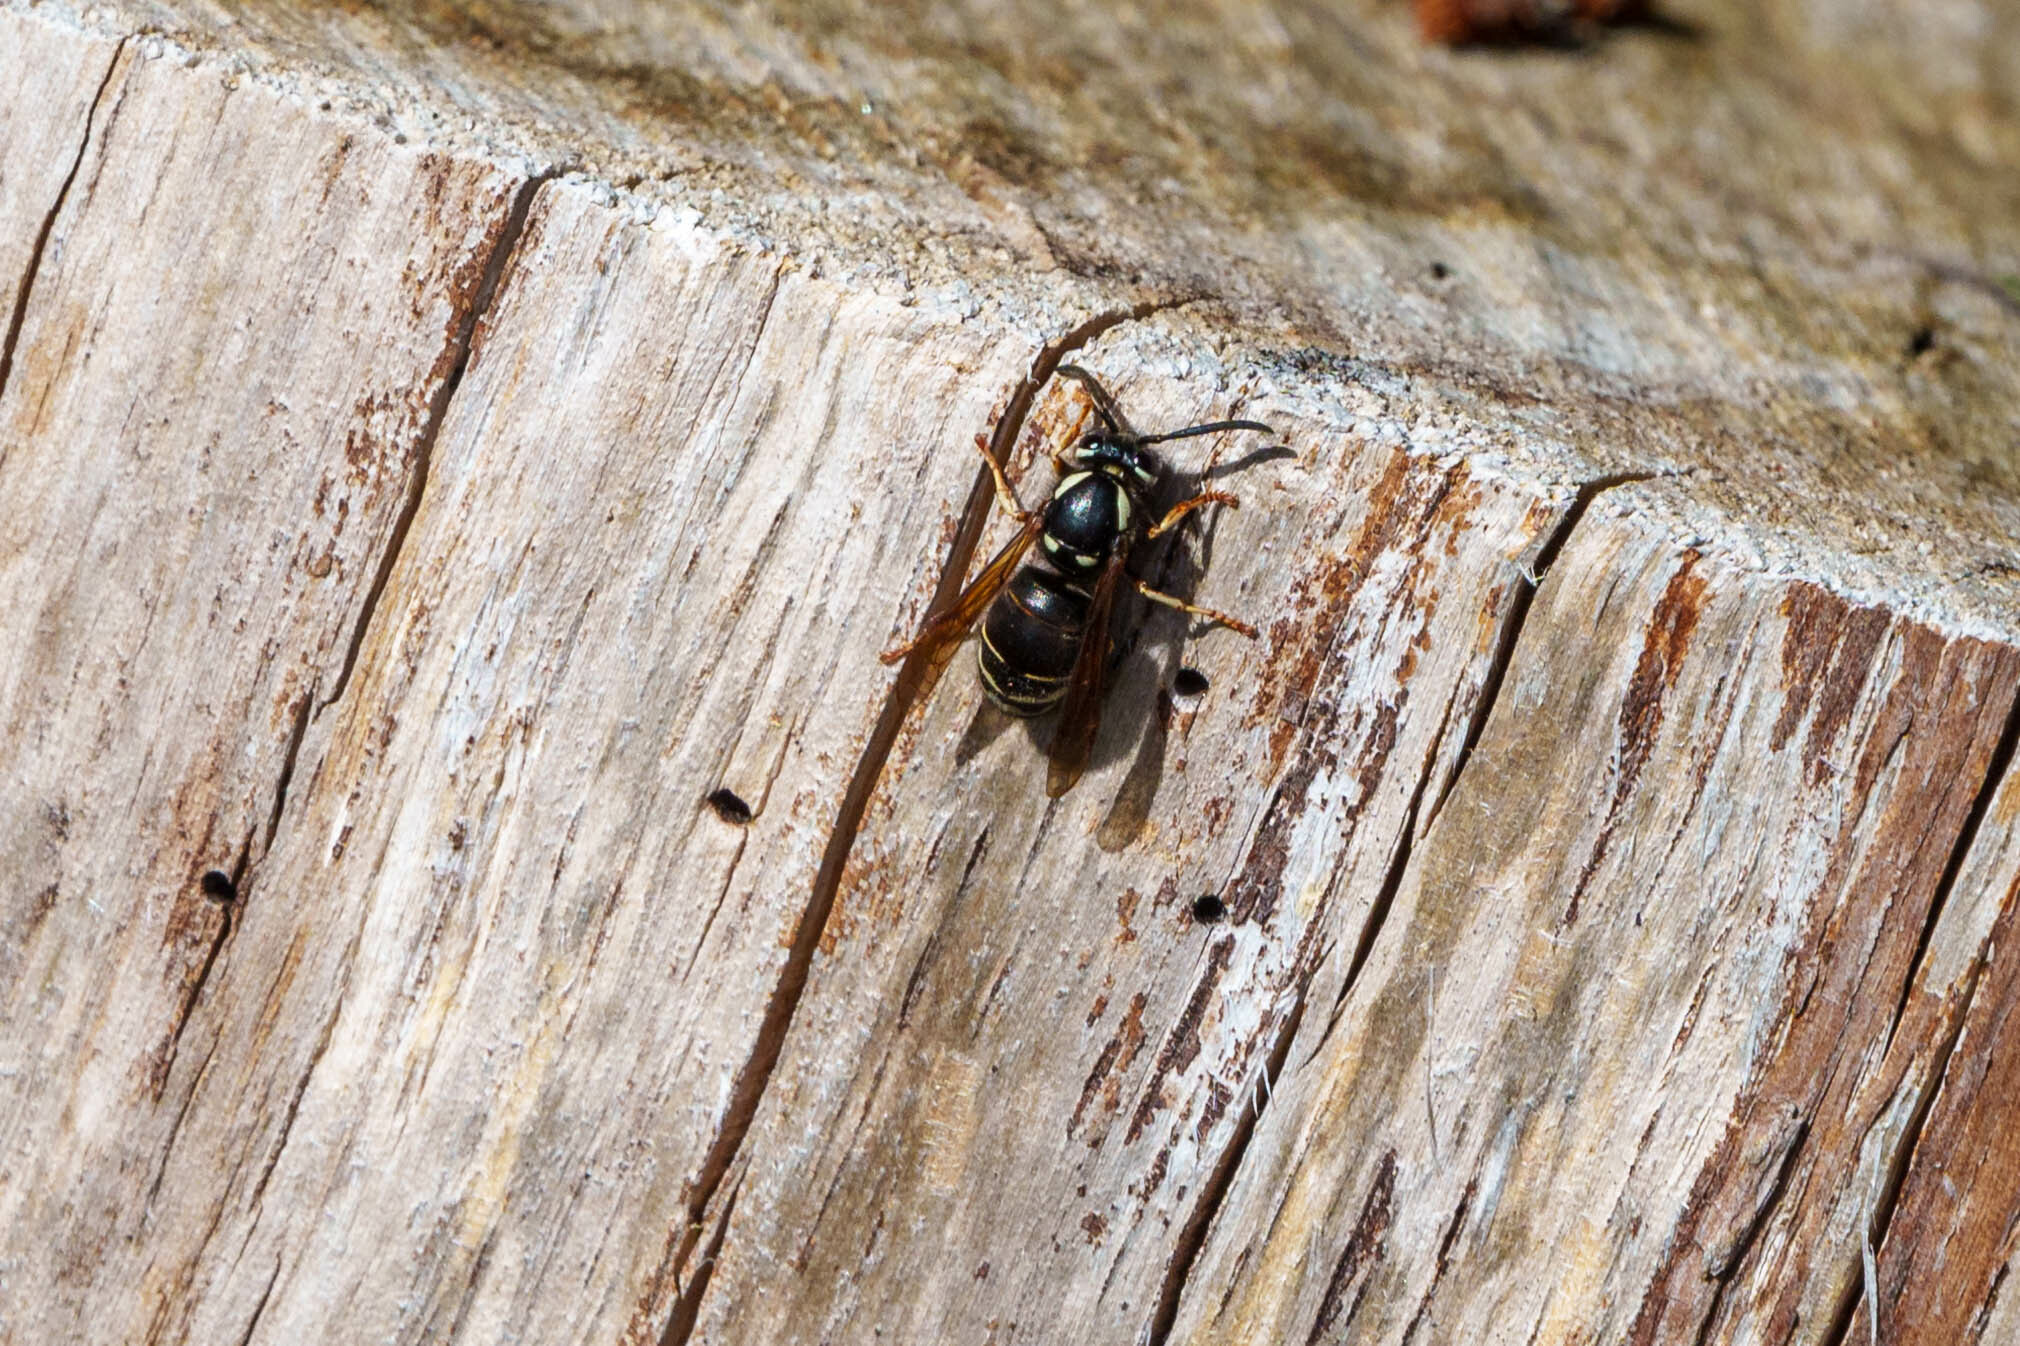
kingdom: Animalia
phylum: Arthropoda
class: Insecta
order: Hymenoptera
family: Vespidae
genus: Vespula
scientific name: Vespula consobrina
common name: Blackjacket
